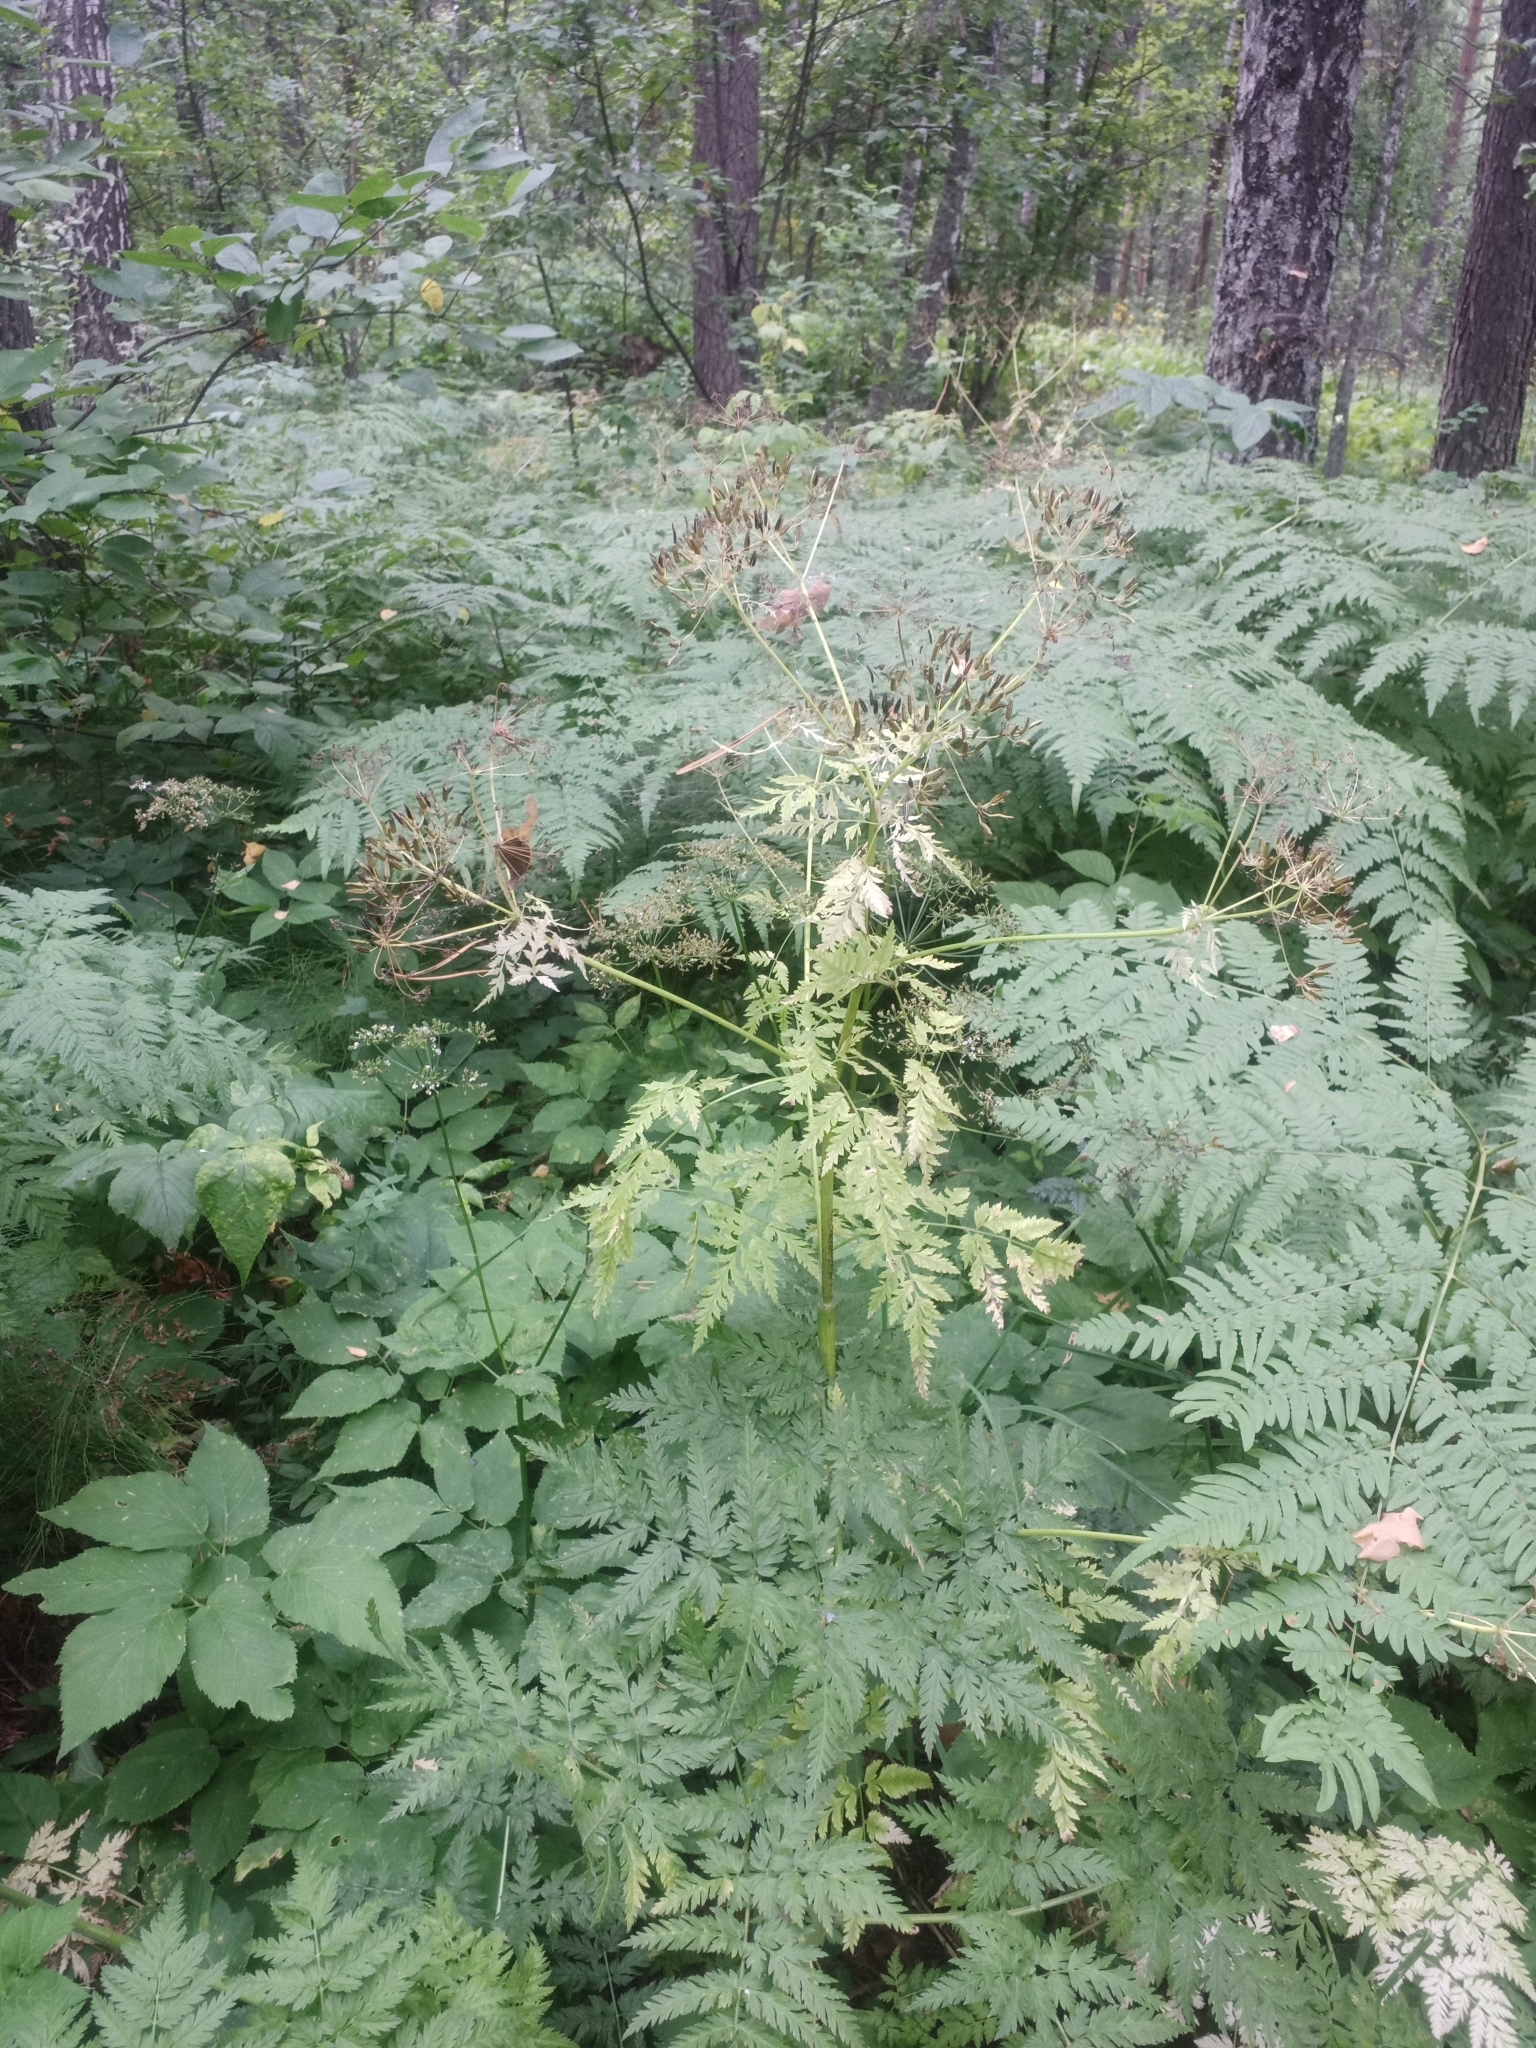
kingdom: Plantae
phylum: Tracheophyta
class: Magnoliopsida
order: Apiales
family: Apiaceae
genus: Anthriscus
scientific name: Anthriscus sylvestris
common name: Cow parsley
